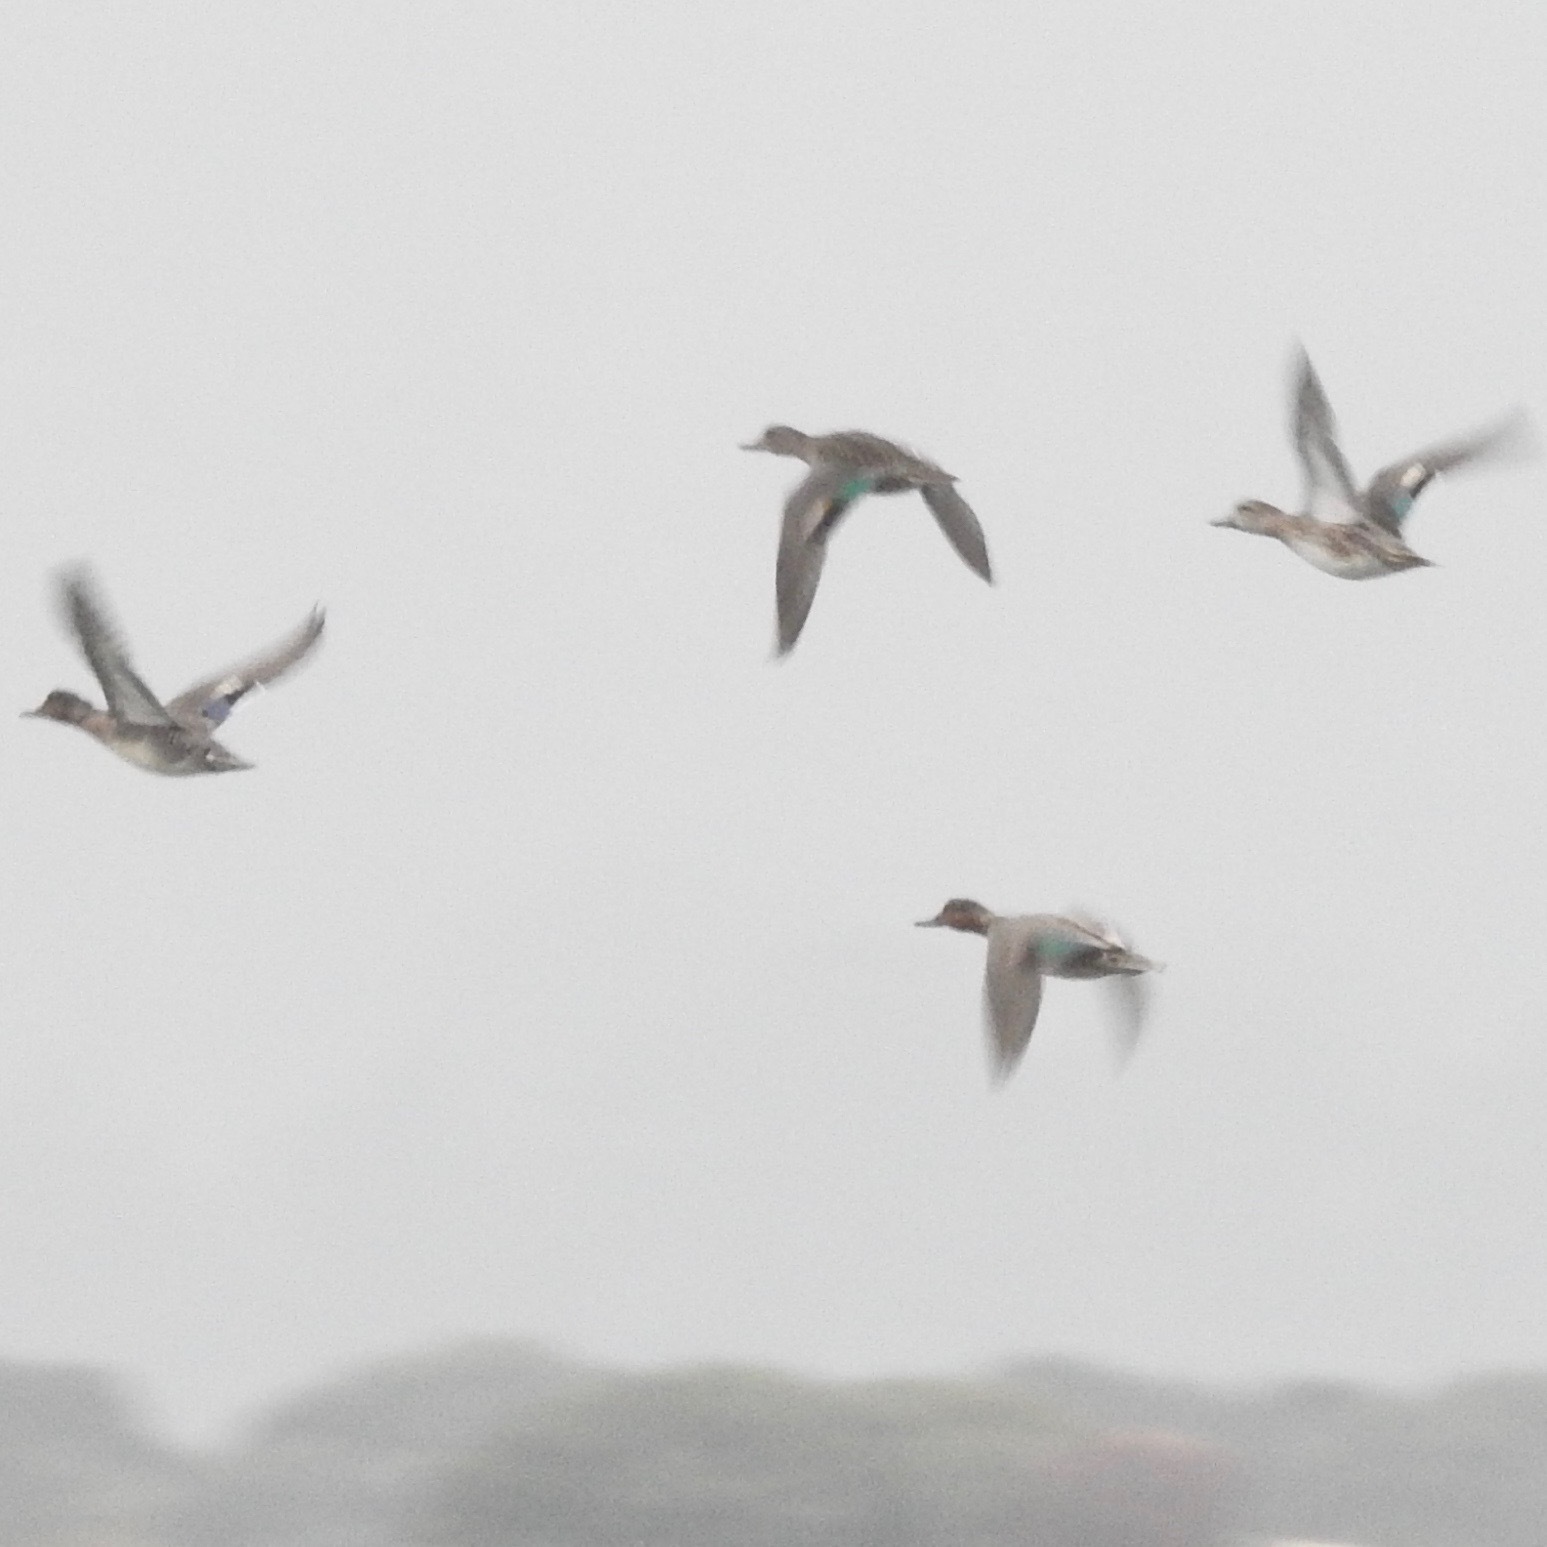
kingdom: Animalia
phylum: Chordata
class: Aves
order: Anseriformes
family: Anatidae
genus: Anas
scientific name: Anas crecca
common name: Eurasian teal
